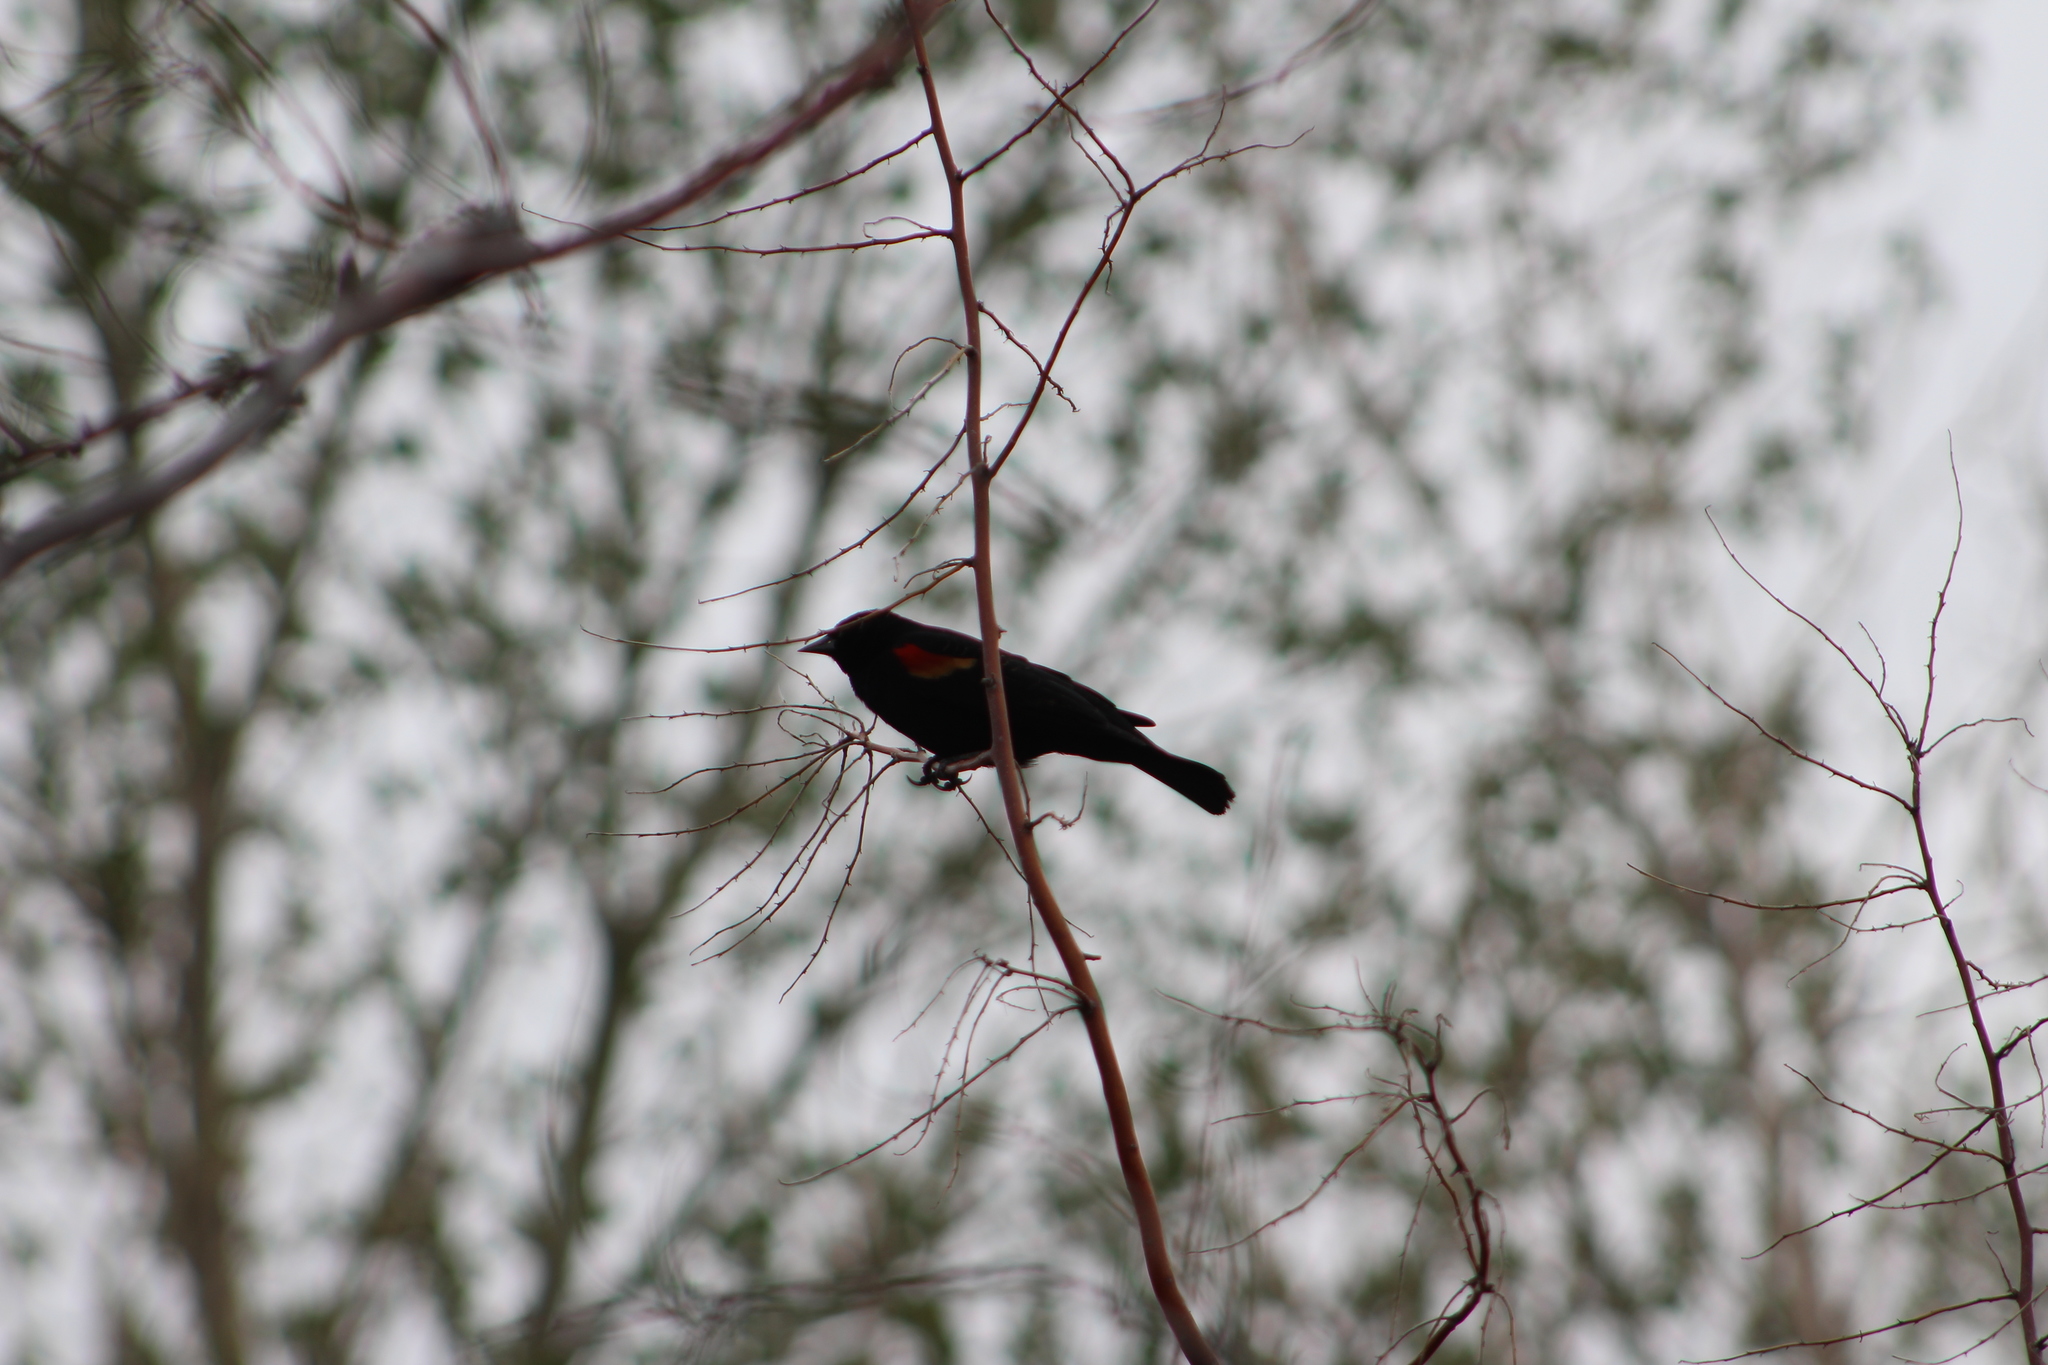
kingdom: Animalia
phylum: Chordata
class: Aves
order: Passeriformes
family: Icteridae
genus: Agelaius
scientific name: Agelaius phoeniceus
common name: Red-winged blackbird
